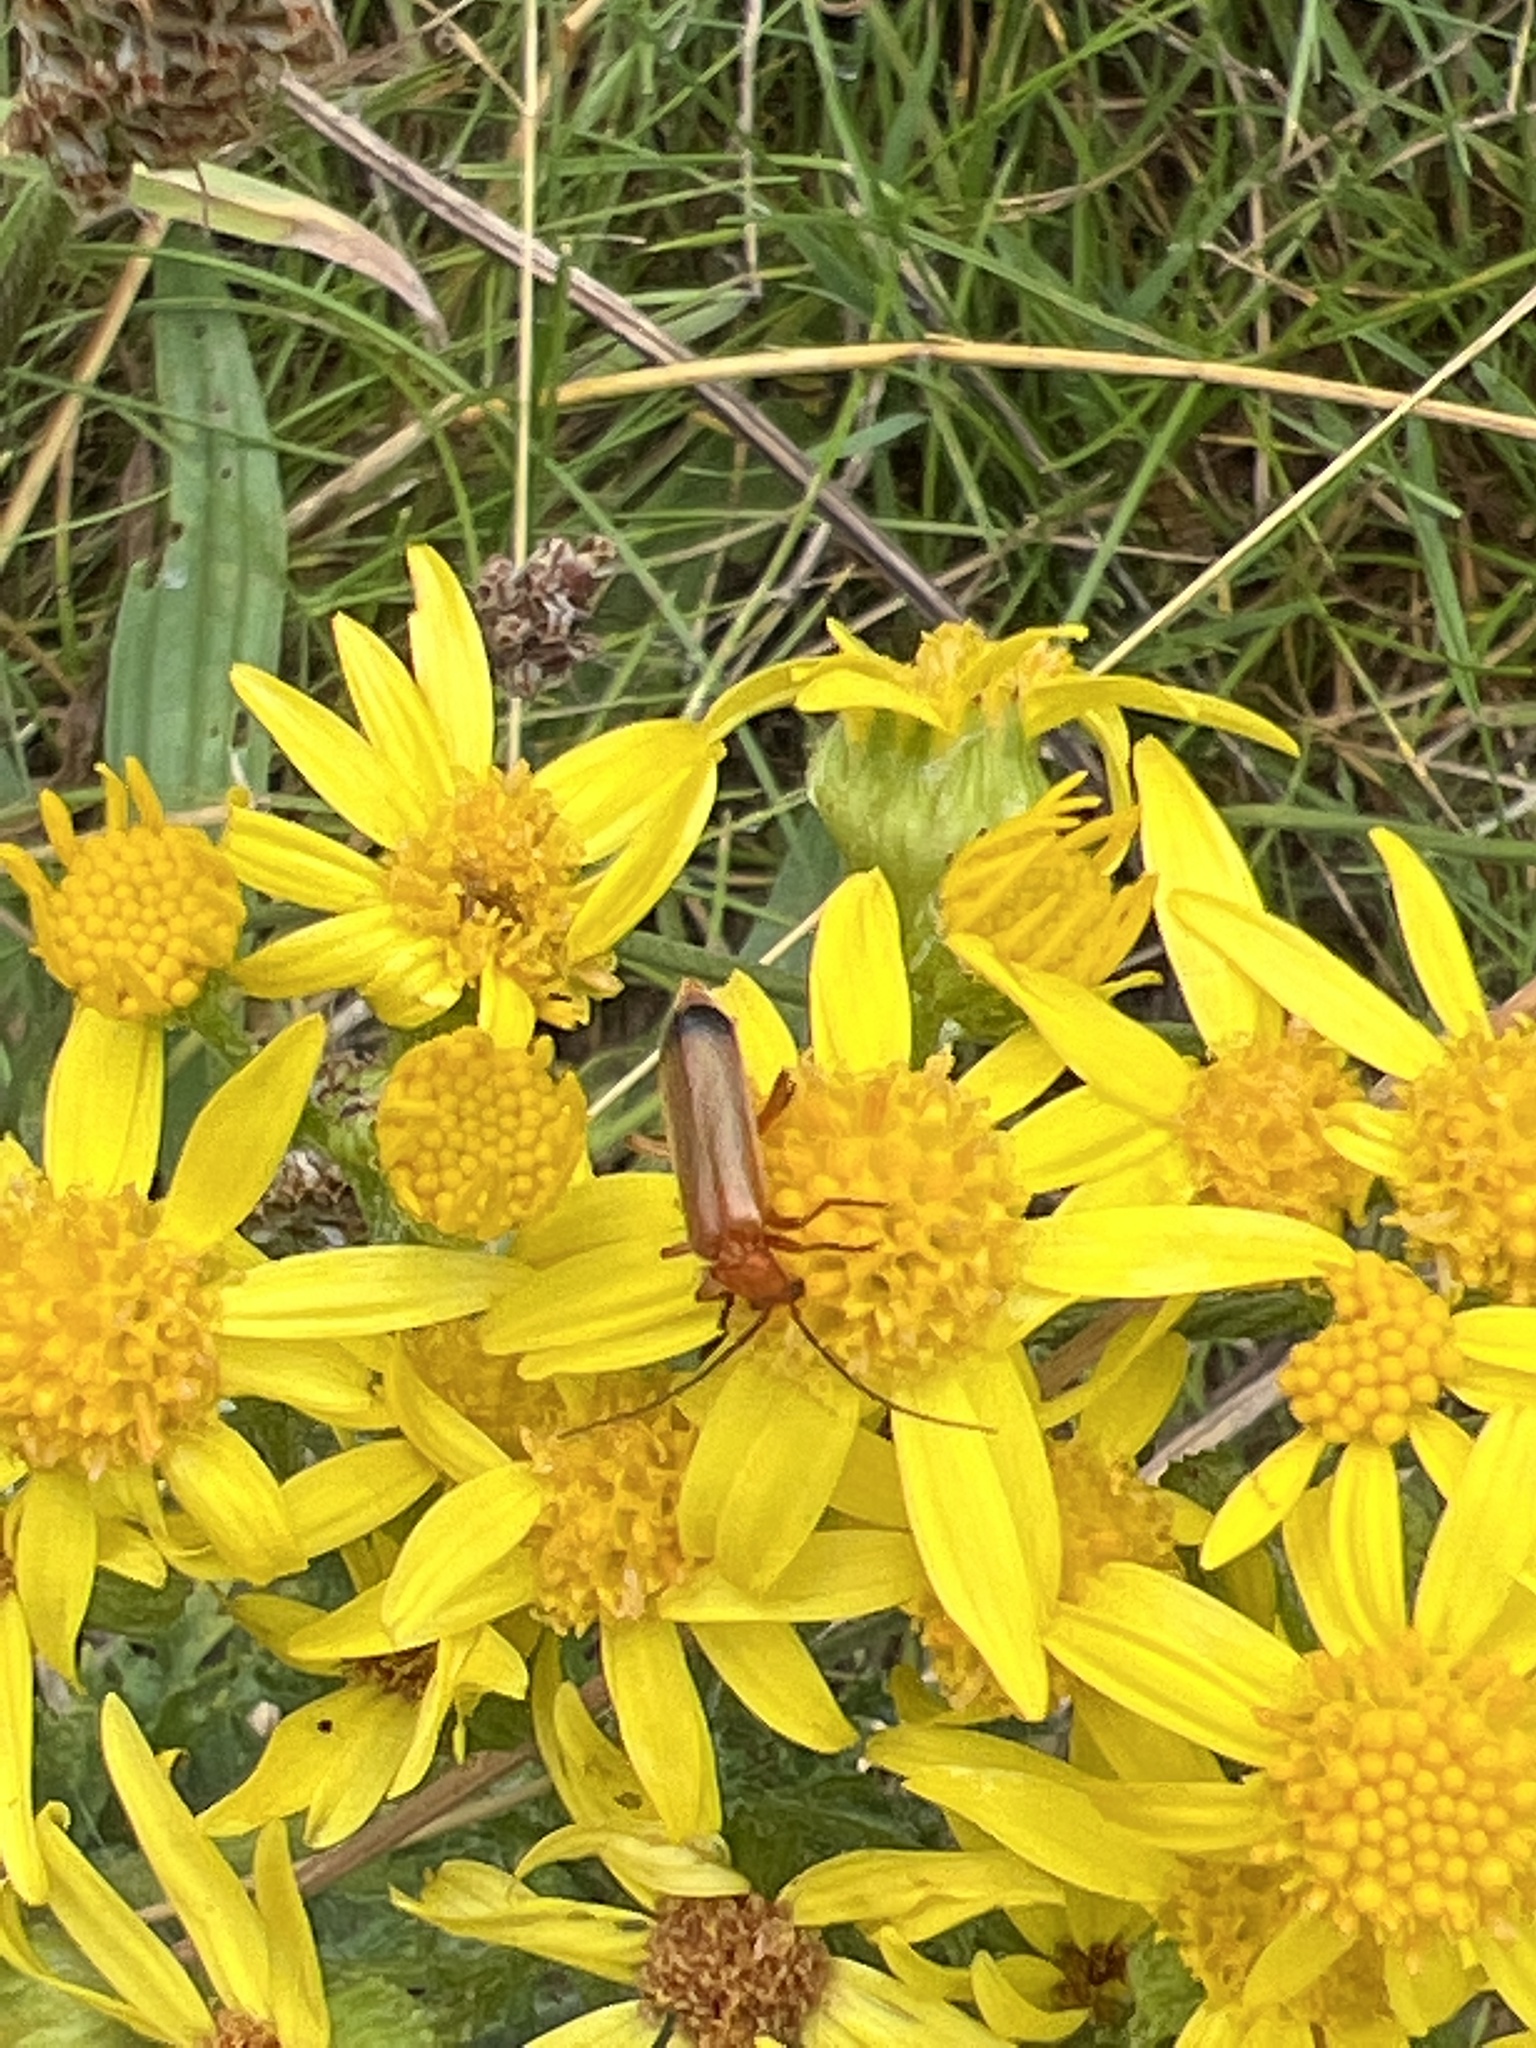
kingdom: Animalia
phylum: Arthropoda
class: Insecta
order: Coleoptera
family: Cantharidae
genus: Rhagonycha
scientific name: Rhagonycha fulva
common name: Common red soldier beetle
